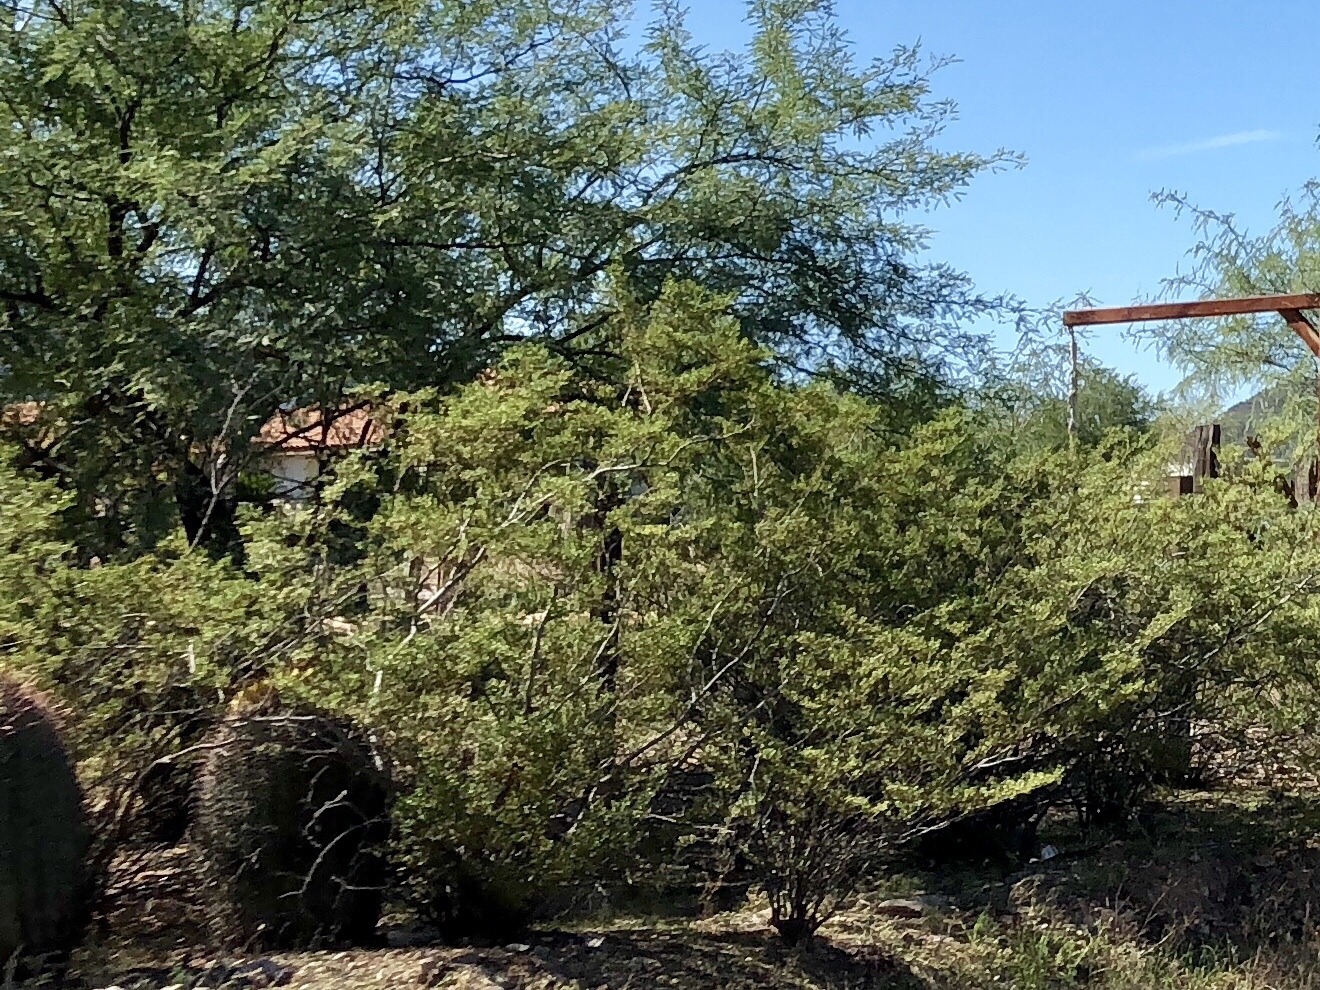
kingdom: Plantae
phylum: Tracheophyta
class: Magnoliopsida
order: Zygophyllales
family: Zygophyllaceae
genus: Larrea
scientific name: Larrea tridentata
